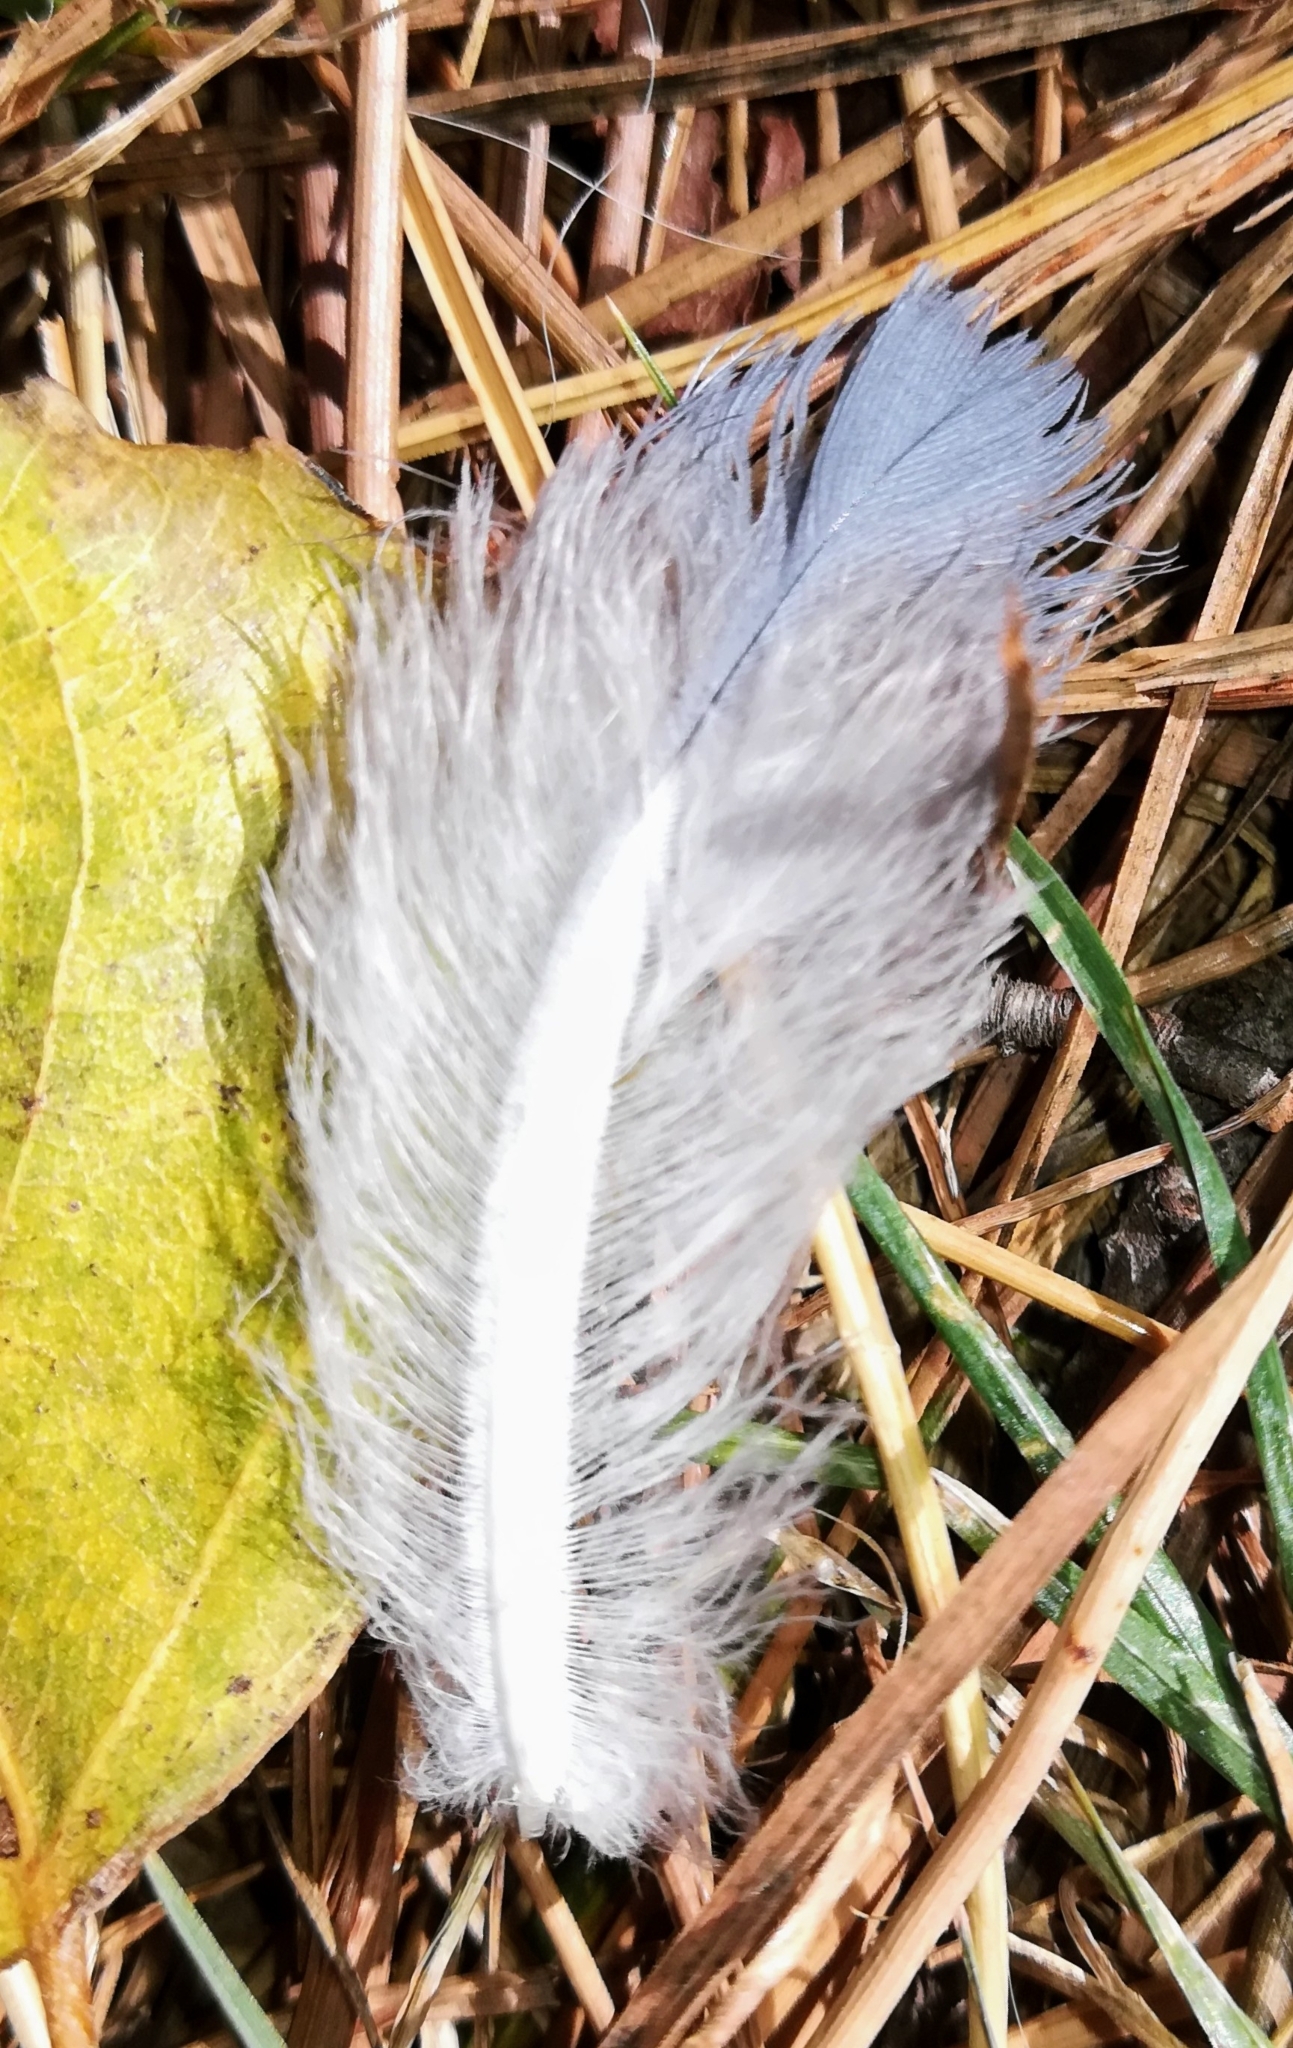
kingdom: Animalia
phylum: Chordata
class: Aves
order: Columbiformes
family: Columbidae
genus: Columba
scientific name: Columba palumbus
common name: Common wood pigeon
